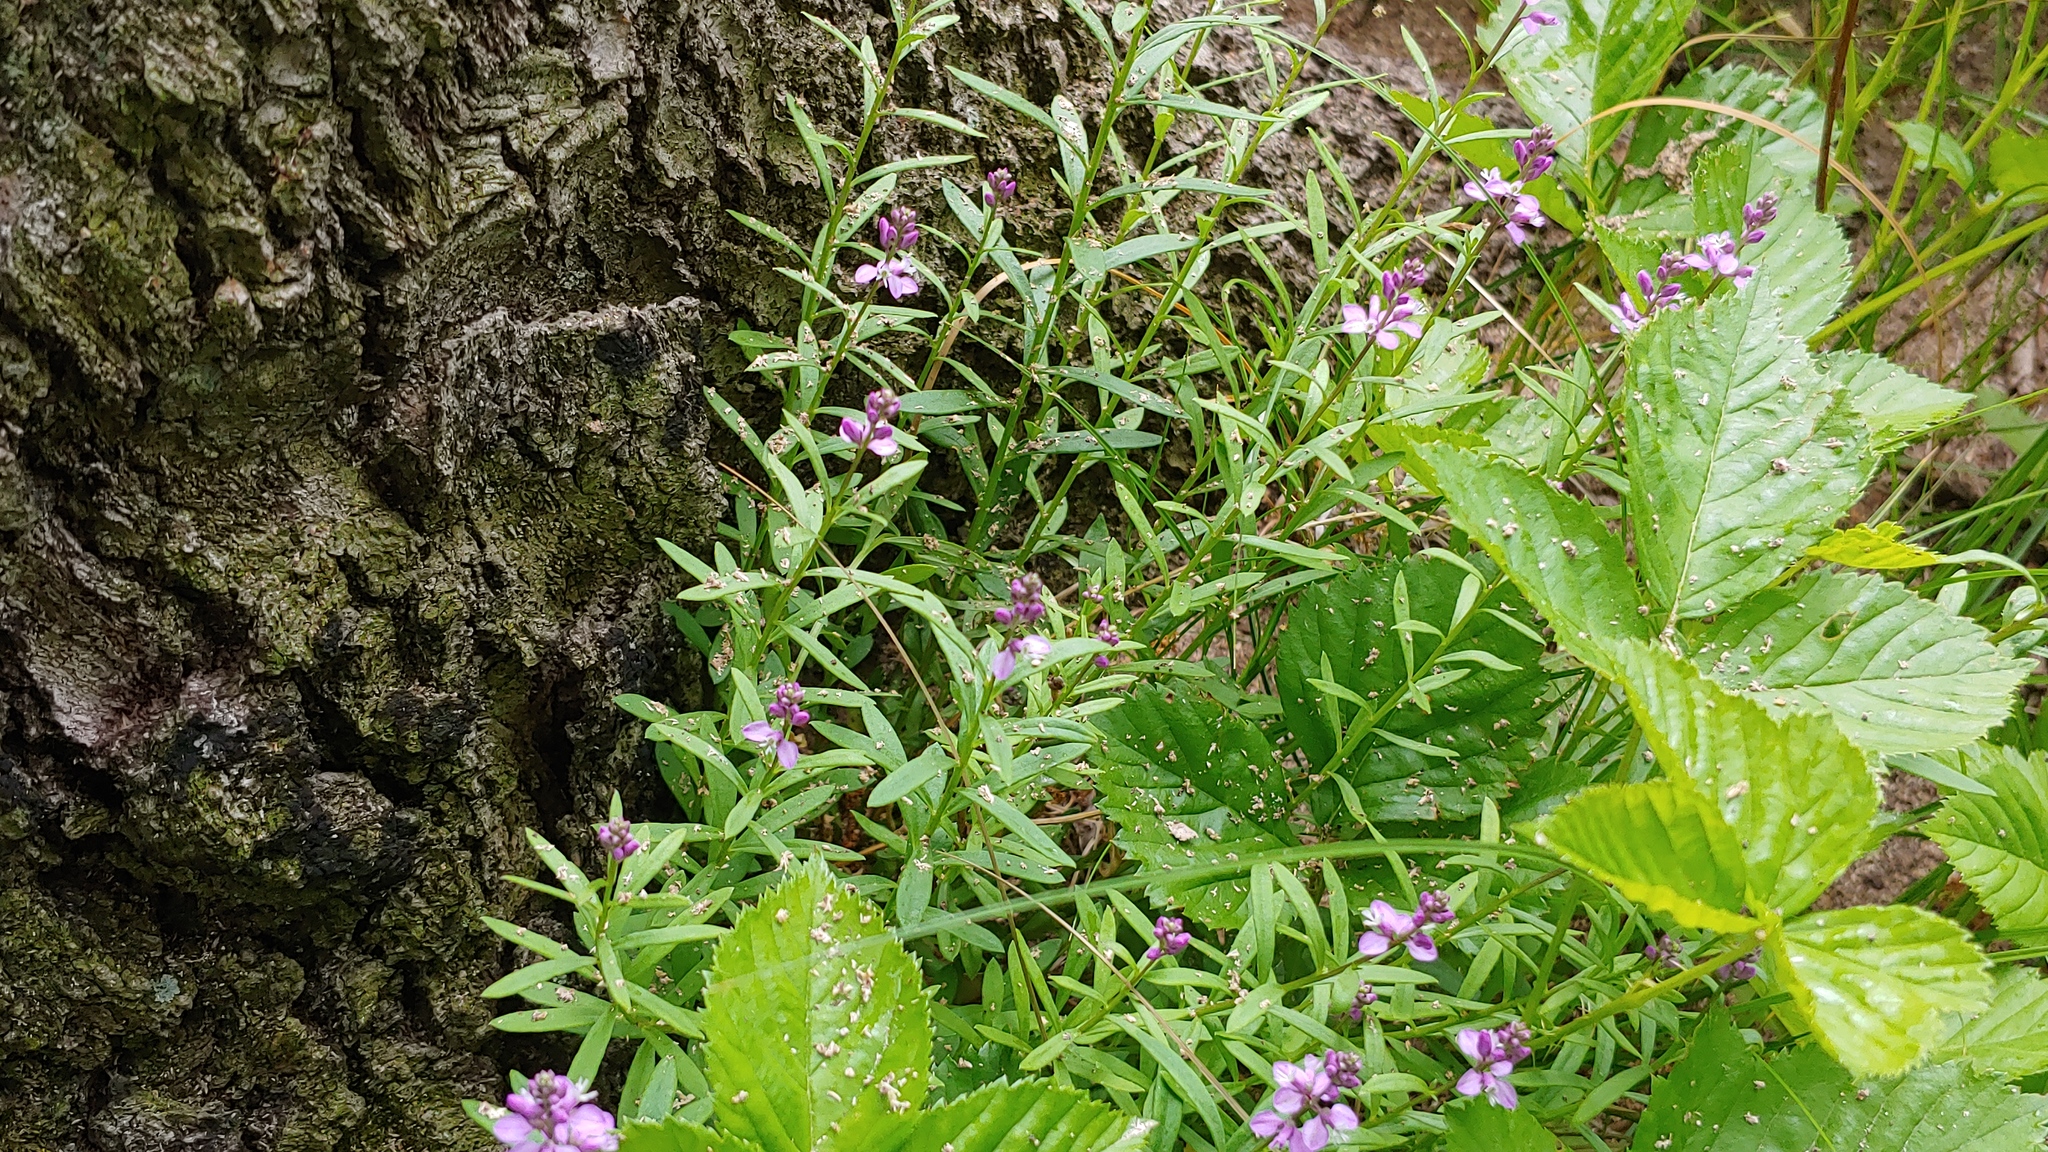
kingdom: Plantae
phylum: Tracheophyta
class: Magnoliopsida
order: Fabales
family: Polygalaceae
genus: Polygala
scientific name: Polygala polygama
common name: Bitter milkwort
